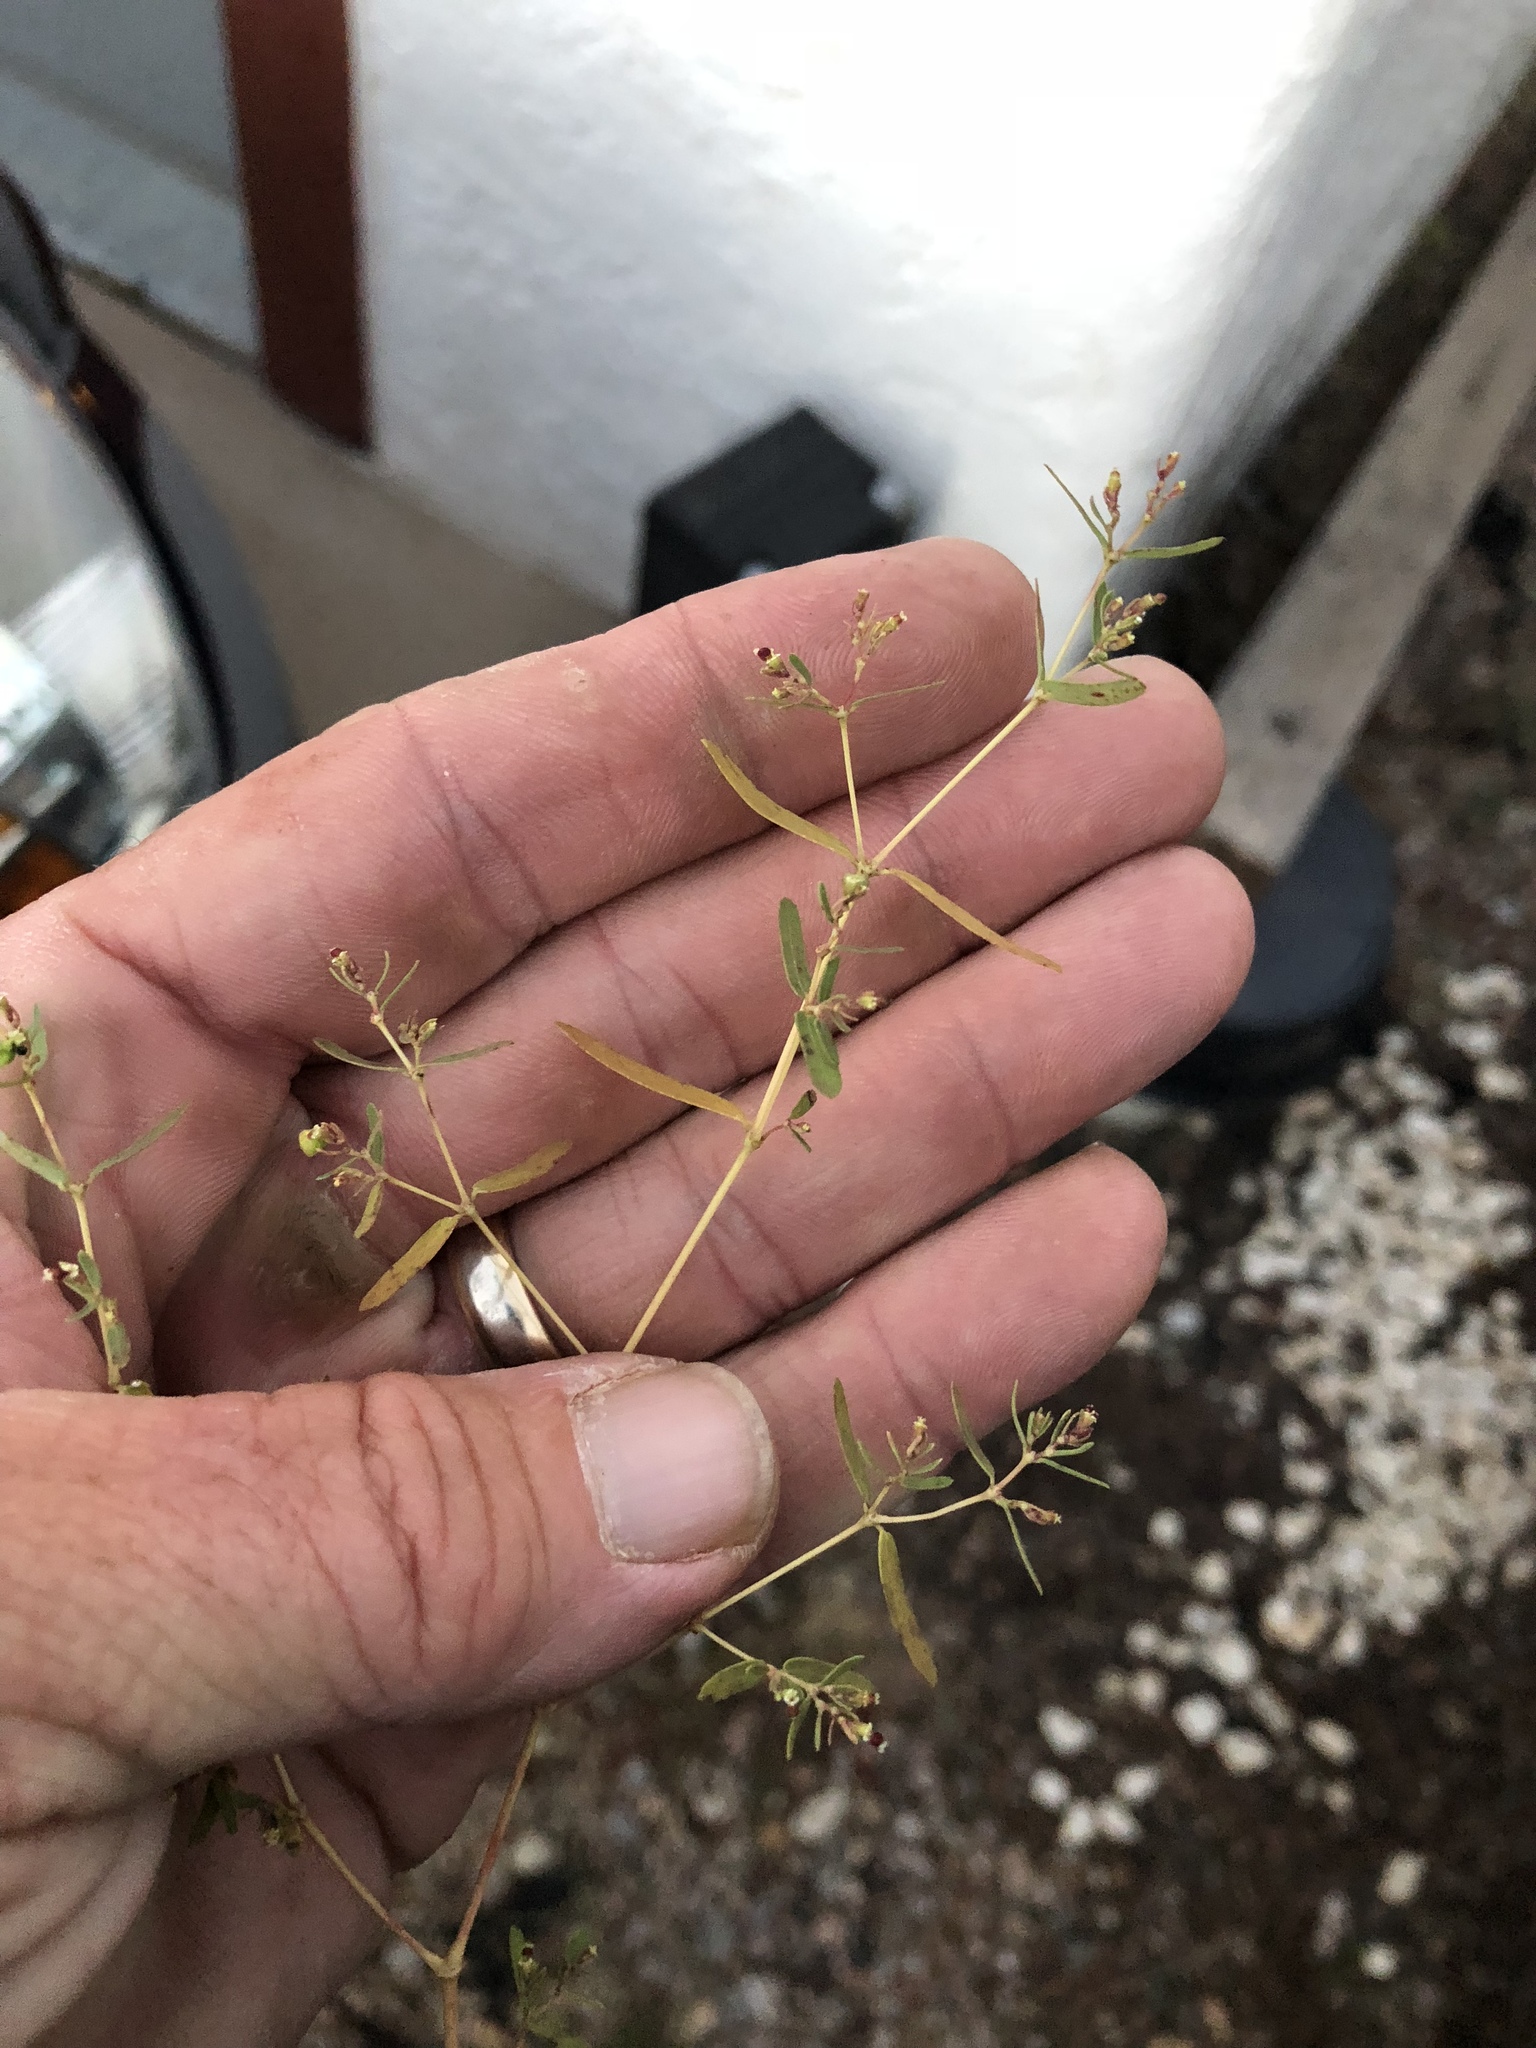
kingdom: Plantae
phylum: Tracheophyta
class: Magnoliopsida
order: Malpighiales
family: Euphorbiaceae
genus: Euphorbia
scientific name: Euphorbia serpillifolia
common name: Thyme-leaf spurge
